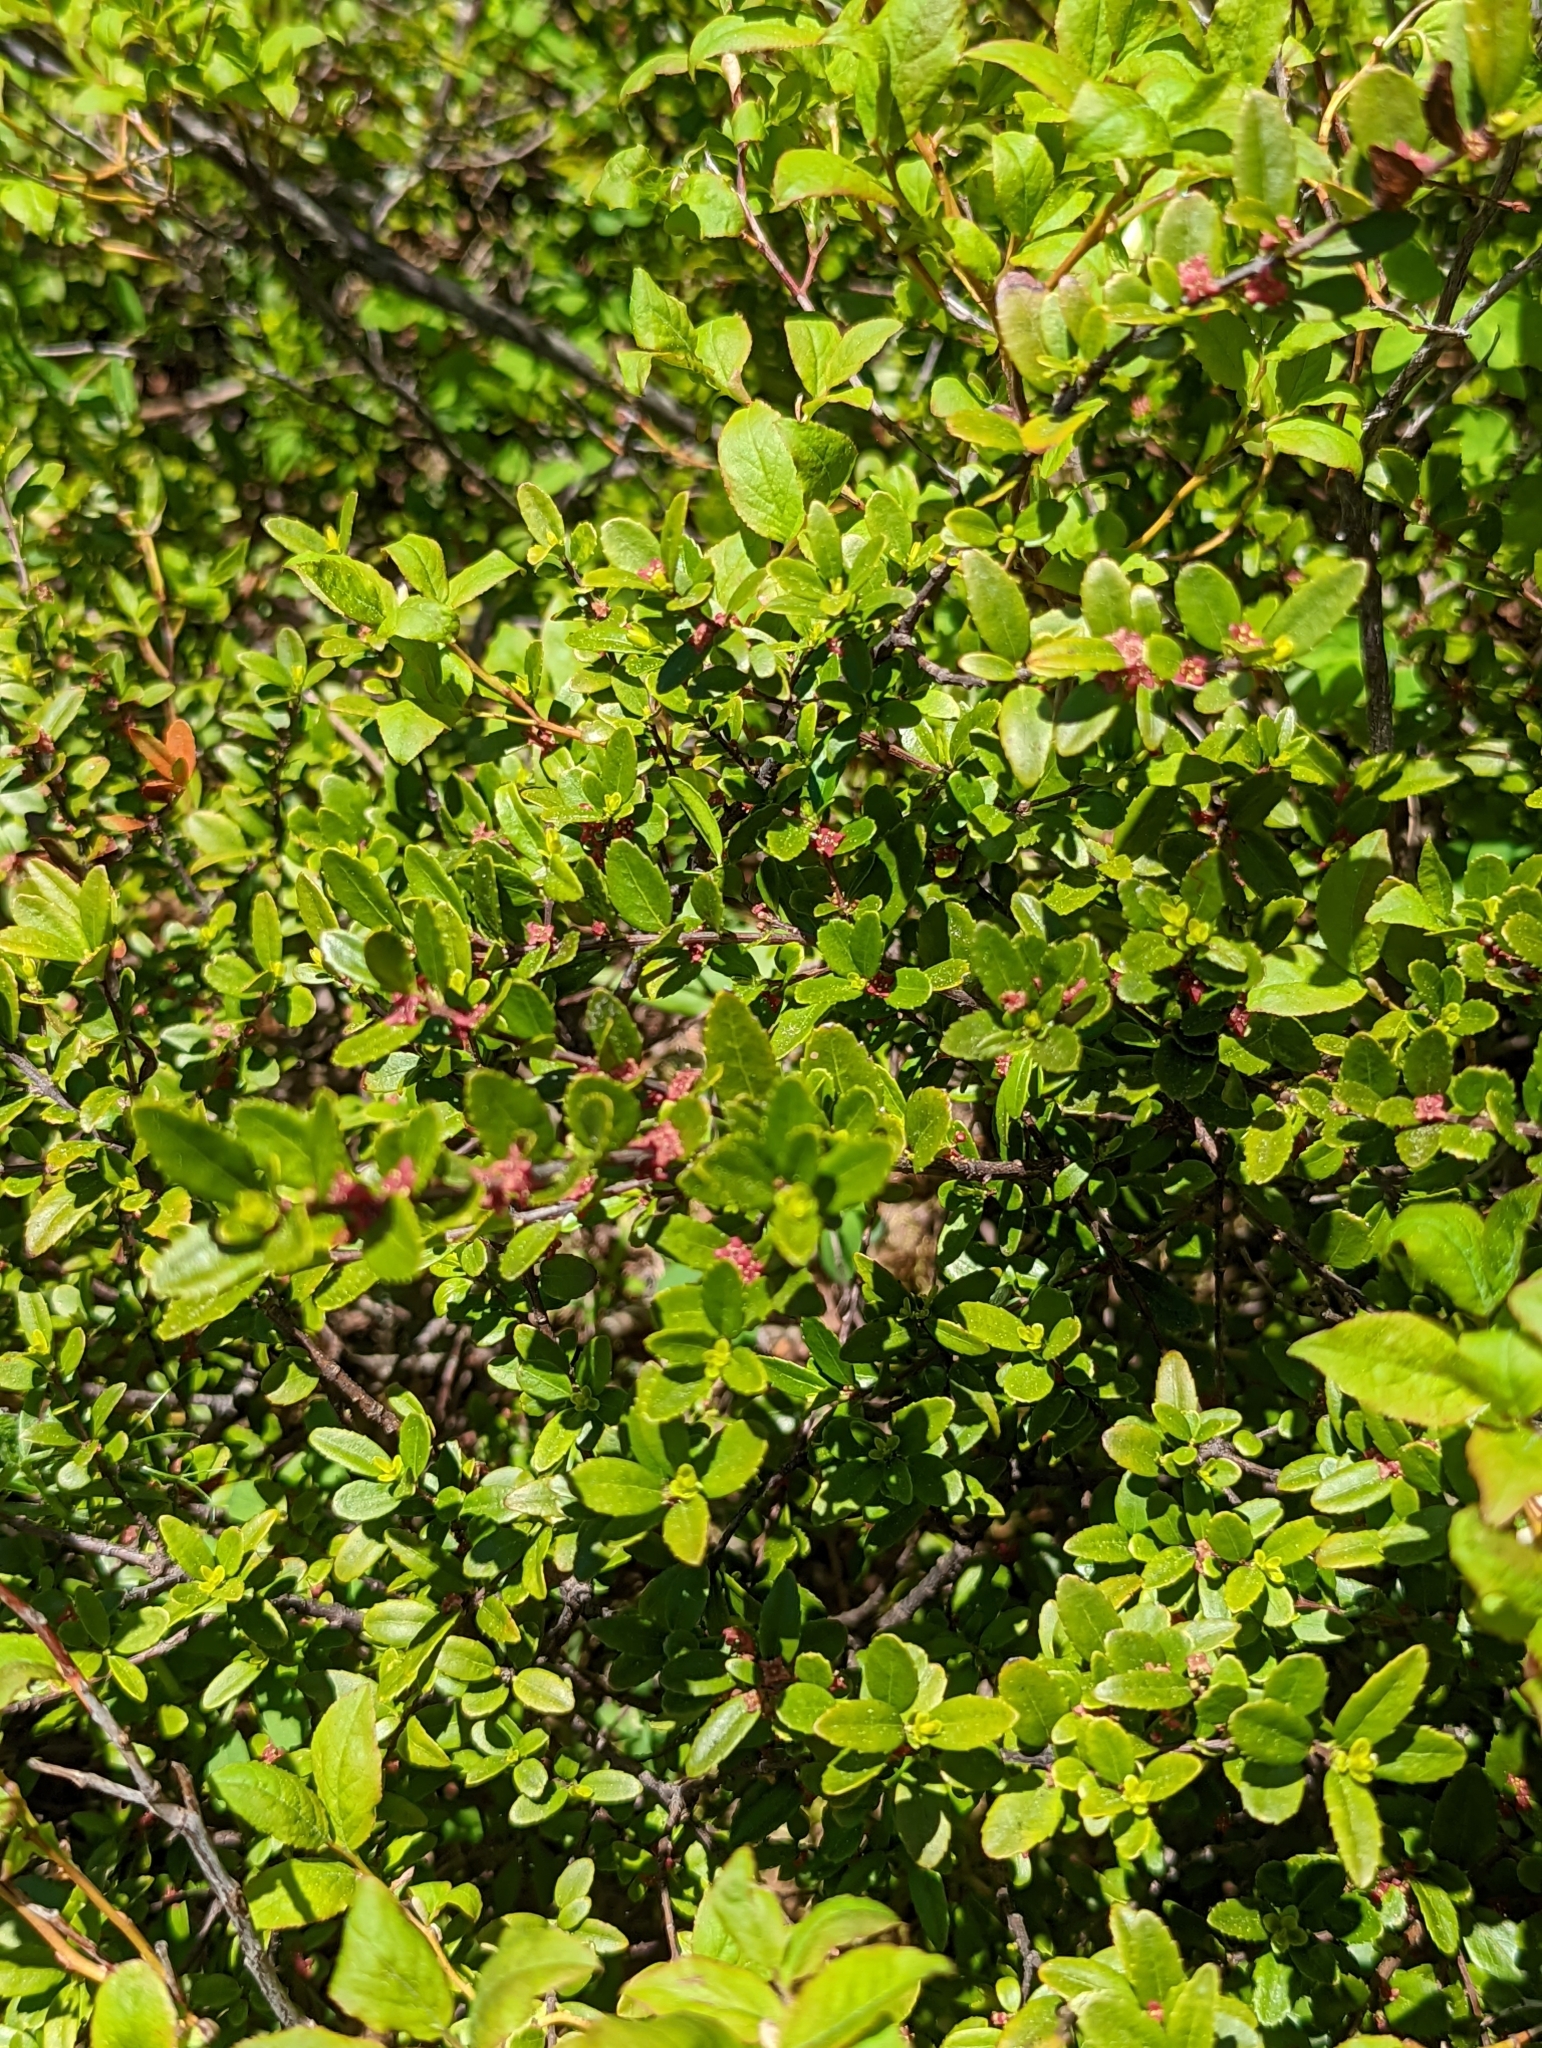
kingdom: Plantae
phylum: Tracheophyta
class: Magnoliopsida
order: Celastrales
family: Celastraceae
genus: Paxistima
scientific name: Paxistima myrsinites
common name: Mountain-lover
